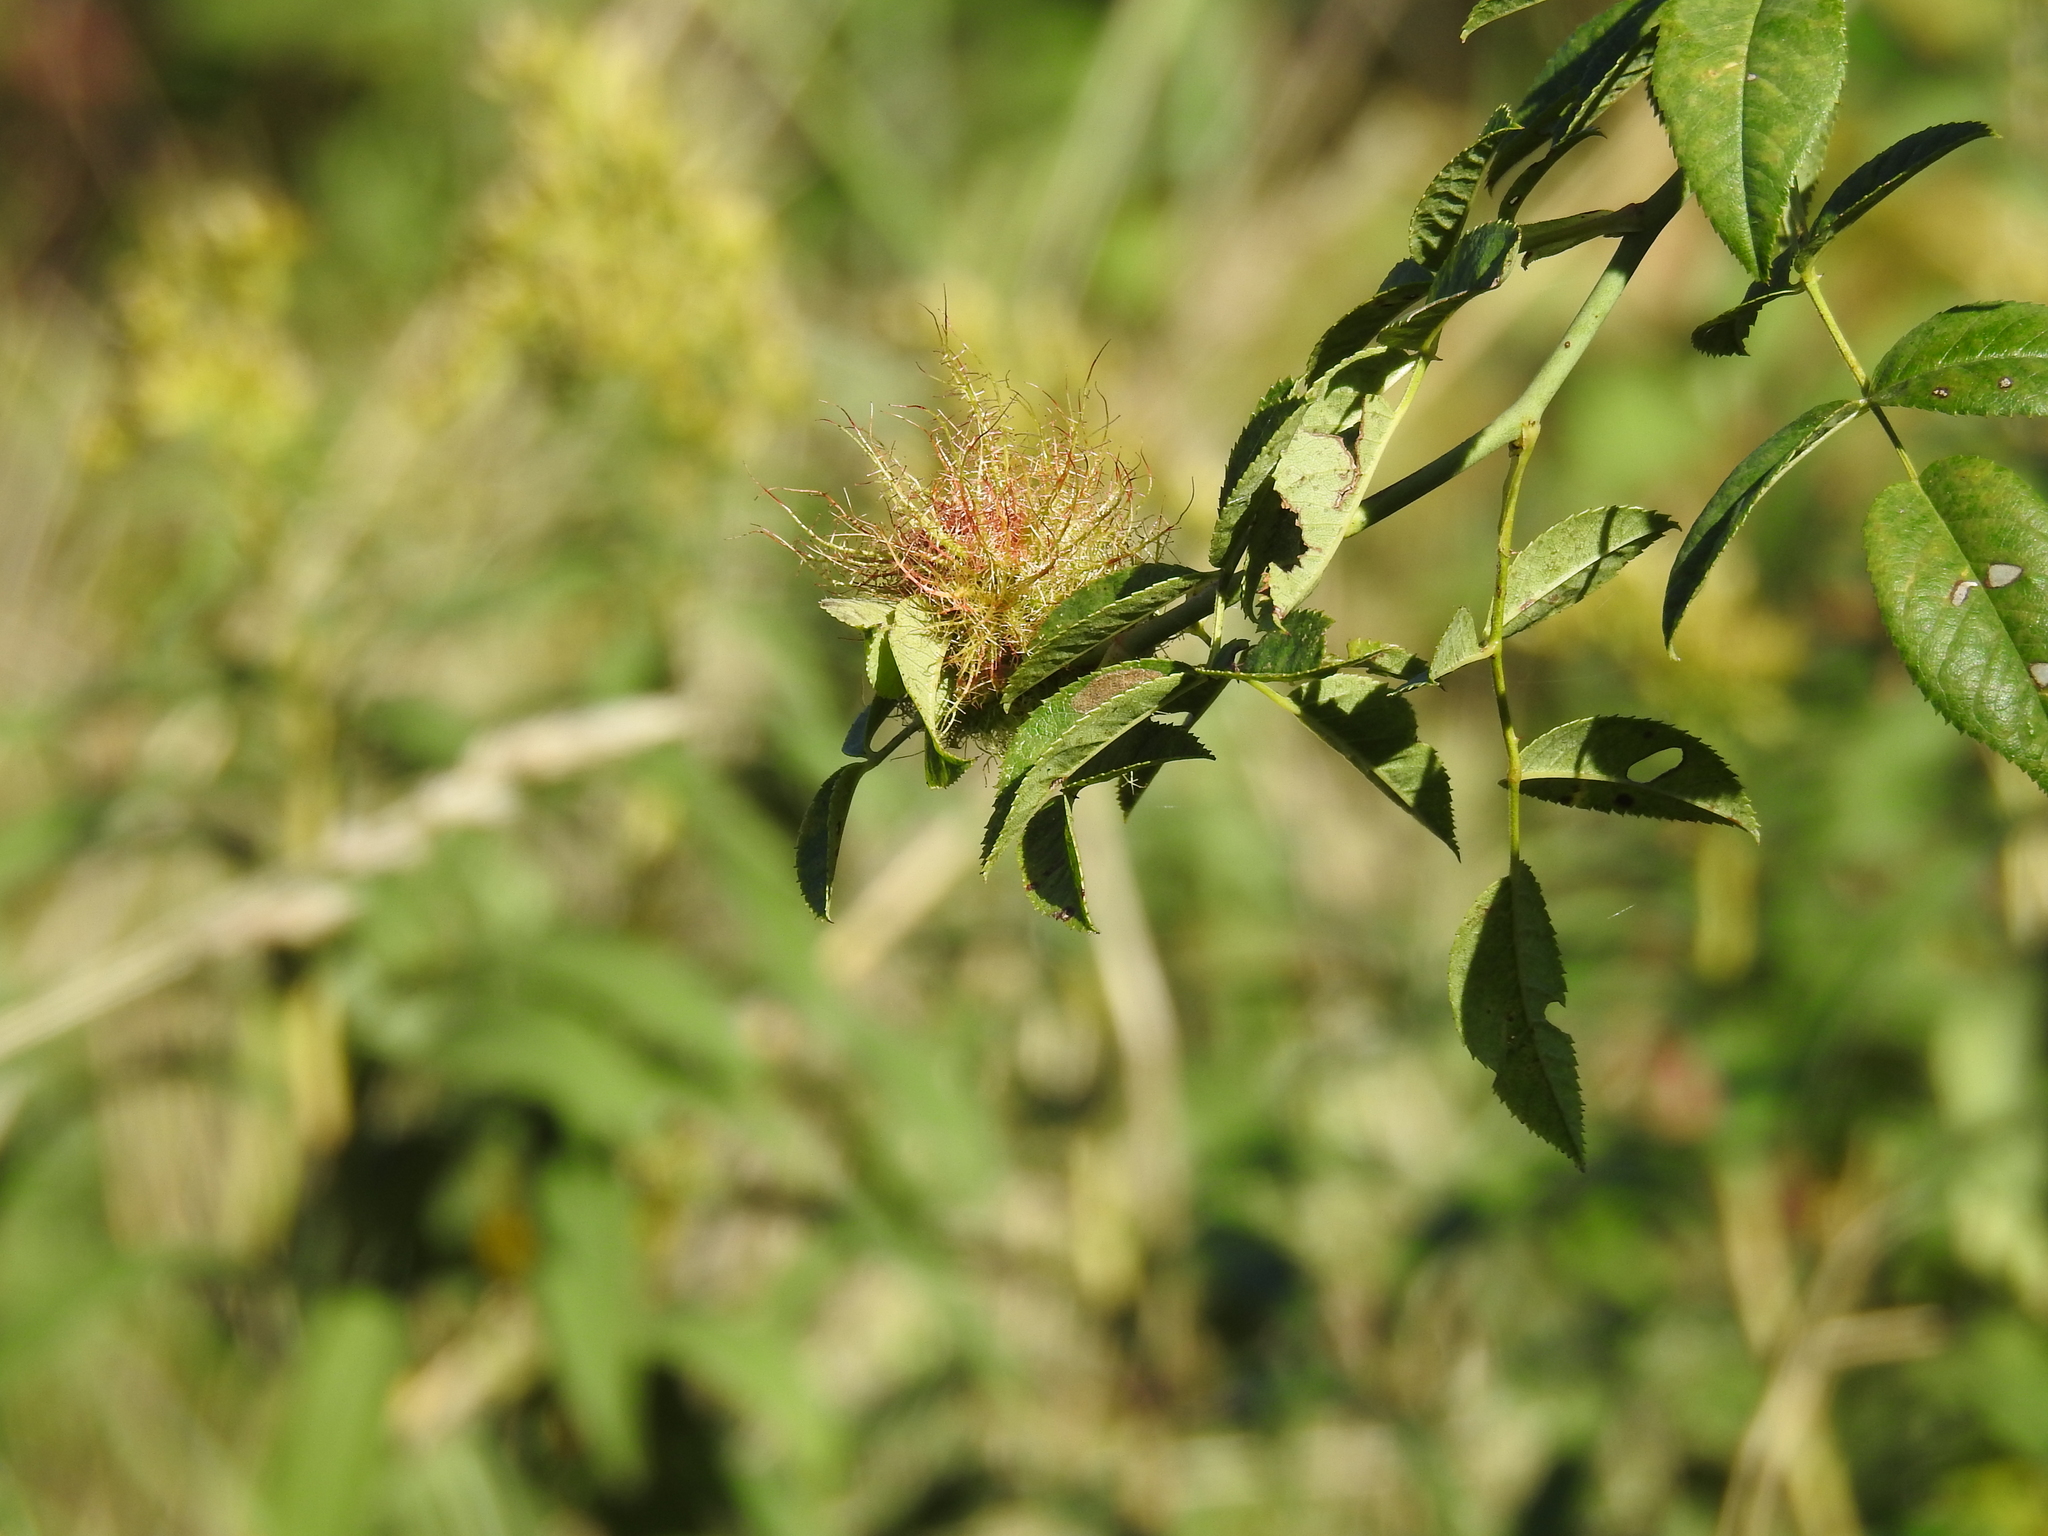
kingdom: Animalia
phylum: Arthropoda
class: Insecta
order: Hymenoptera
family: Cynipidae
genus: Diplolepis
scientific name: Diplolepis rosae
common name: Bedeguar gall
